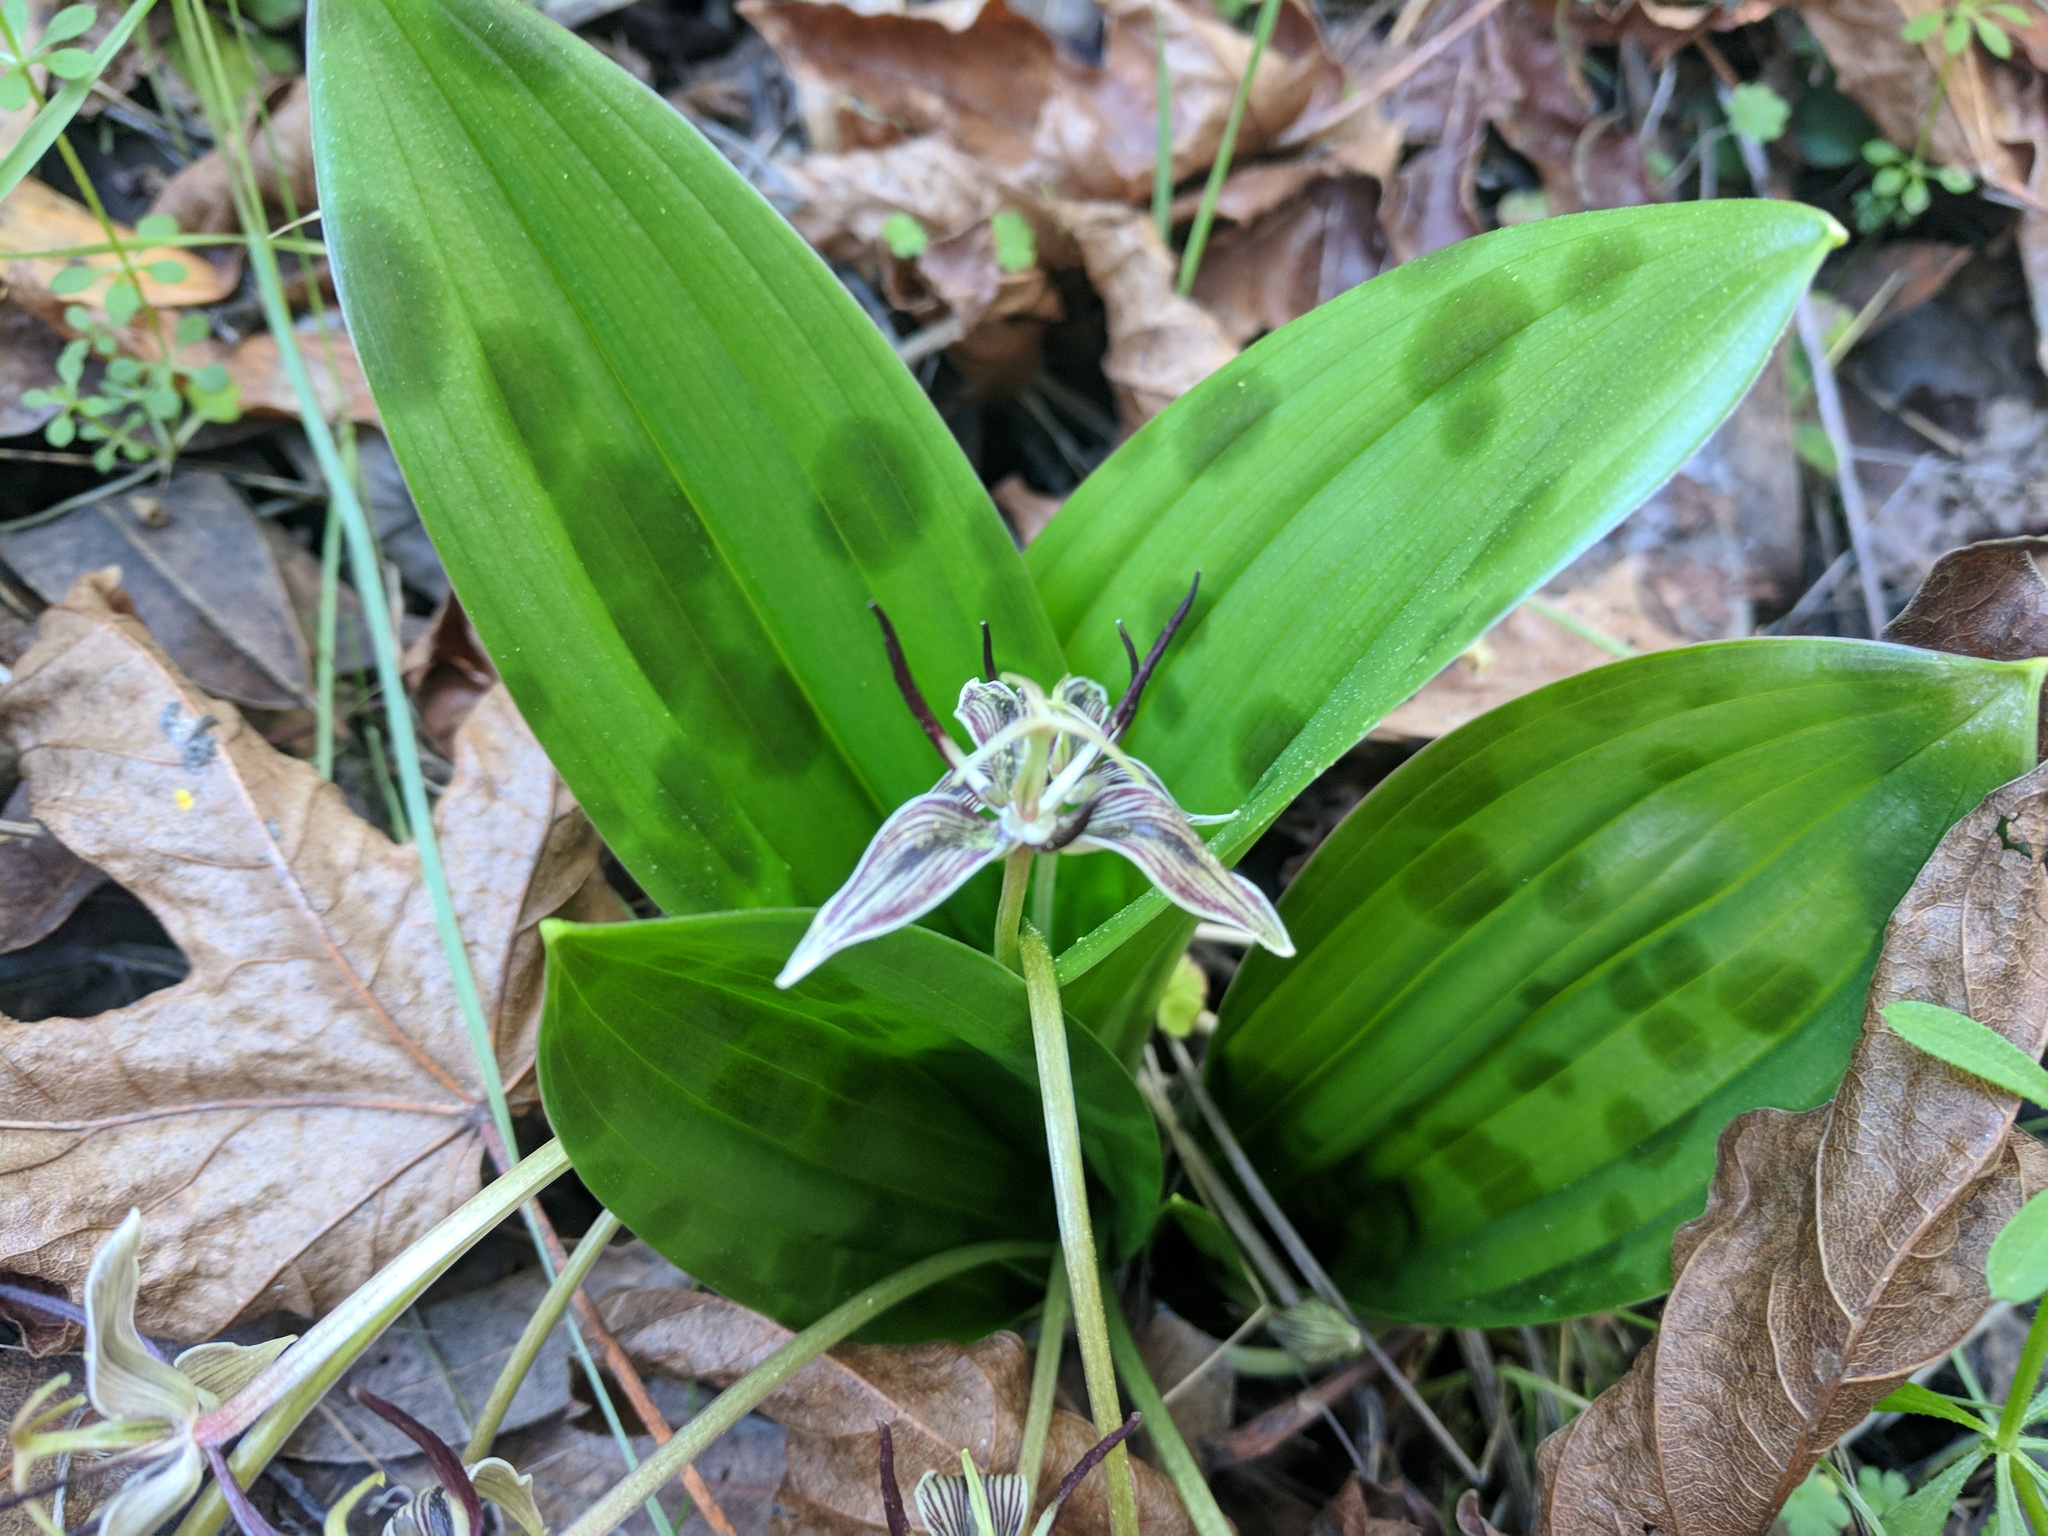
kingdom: Plantae
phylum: Tracheophyta
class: Liliopsida
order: Liliales
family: Liliaceae
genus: Scoliopus
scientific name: Scoliopus bigelovii
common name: Foetid adder's-tongue
